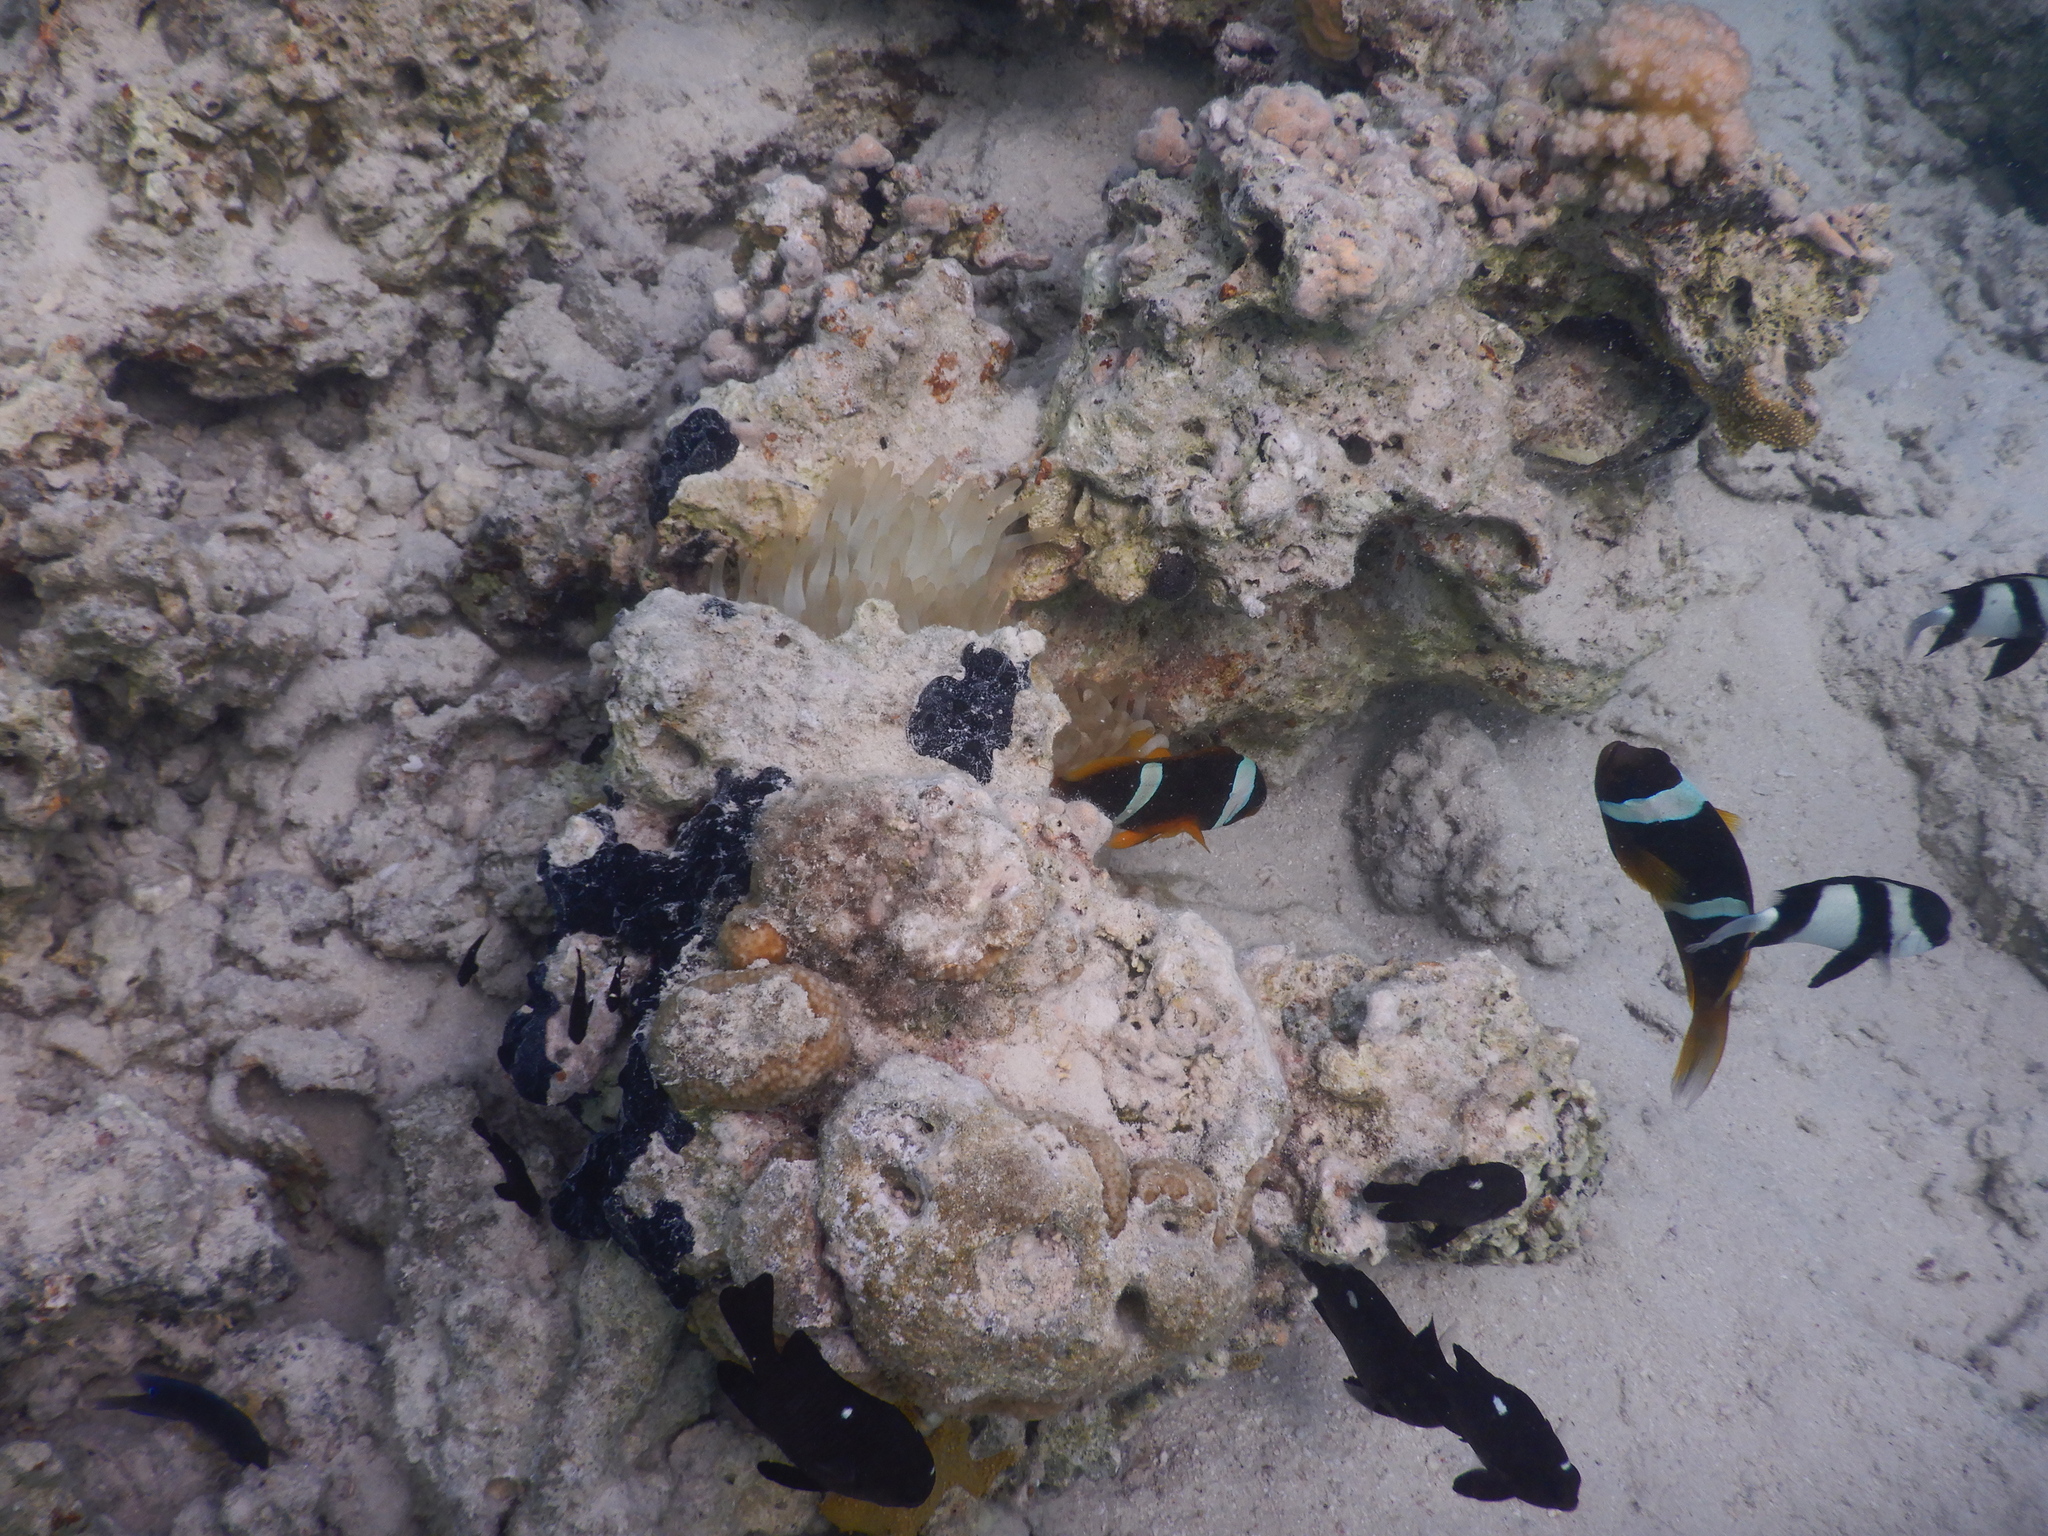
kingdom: Animalia
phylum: Chordata
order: Perciformes
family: Pomacentridae
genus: Dascyllus
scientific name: Dascyllus trimaculatus
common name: Threespot dascyllus
